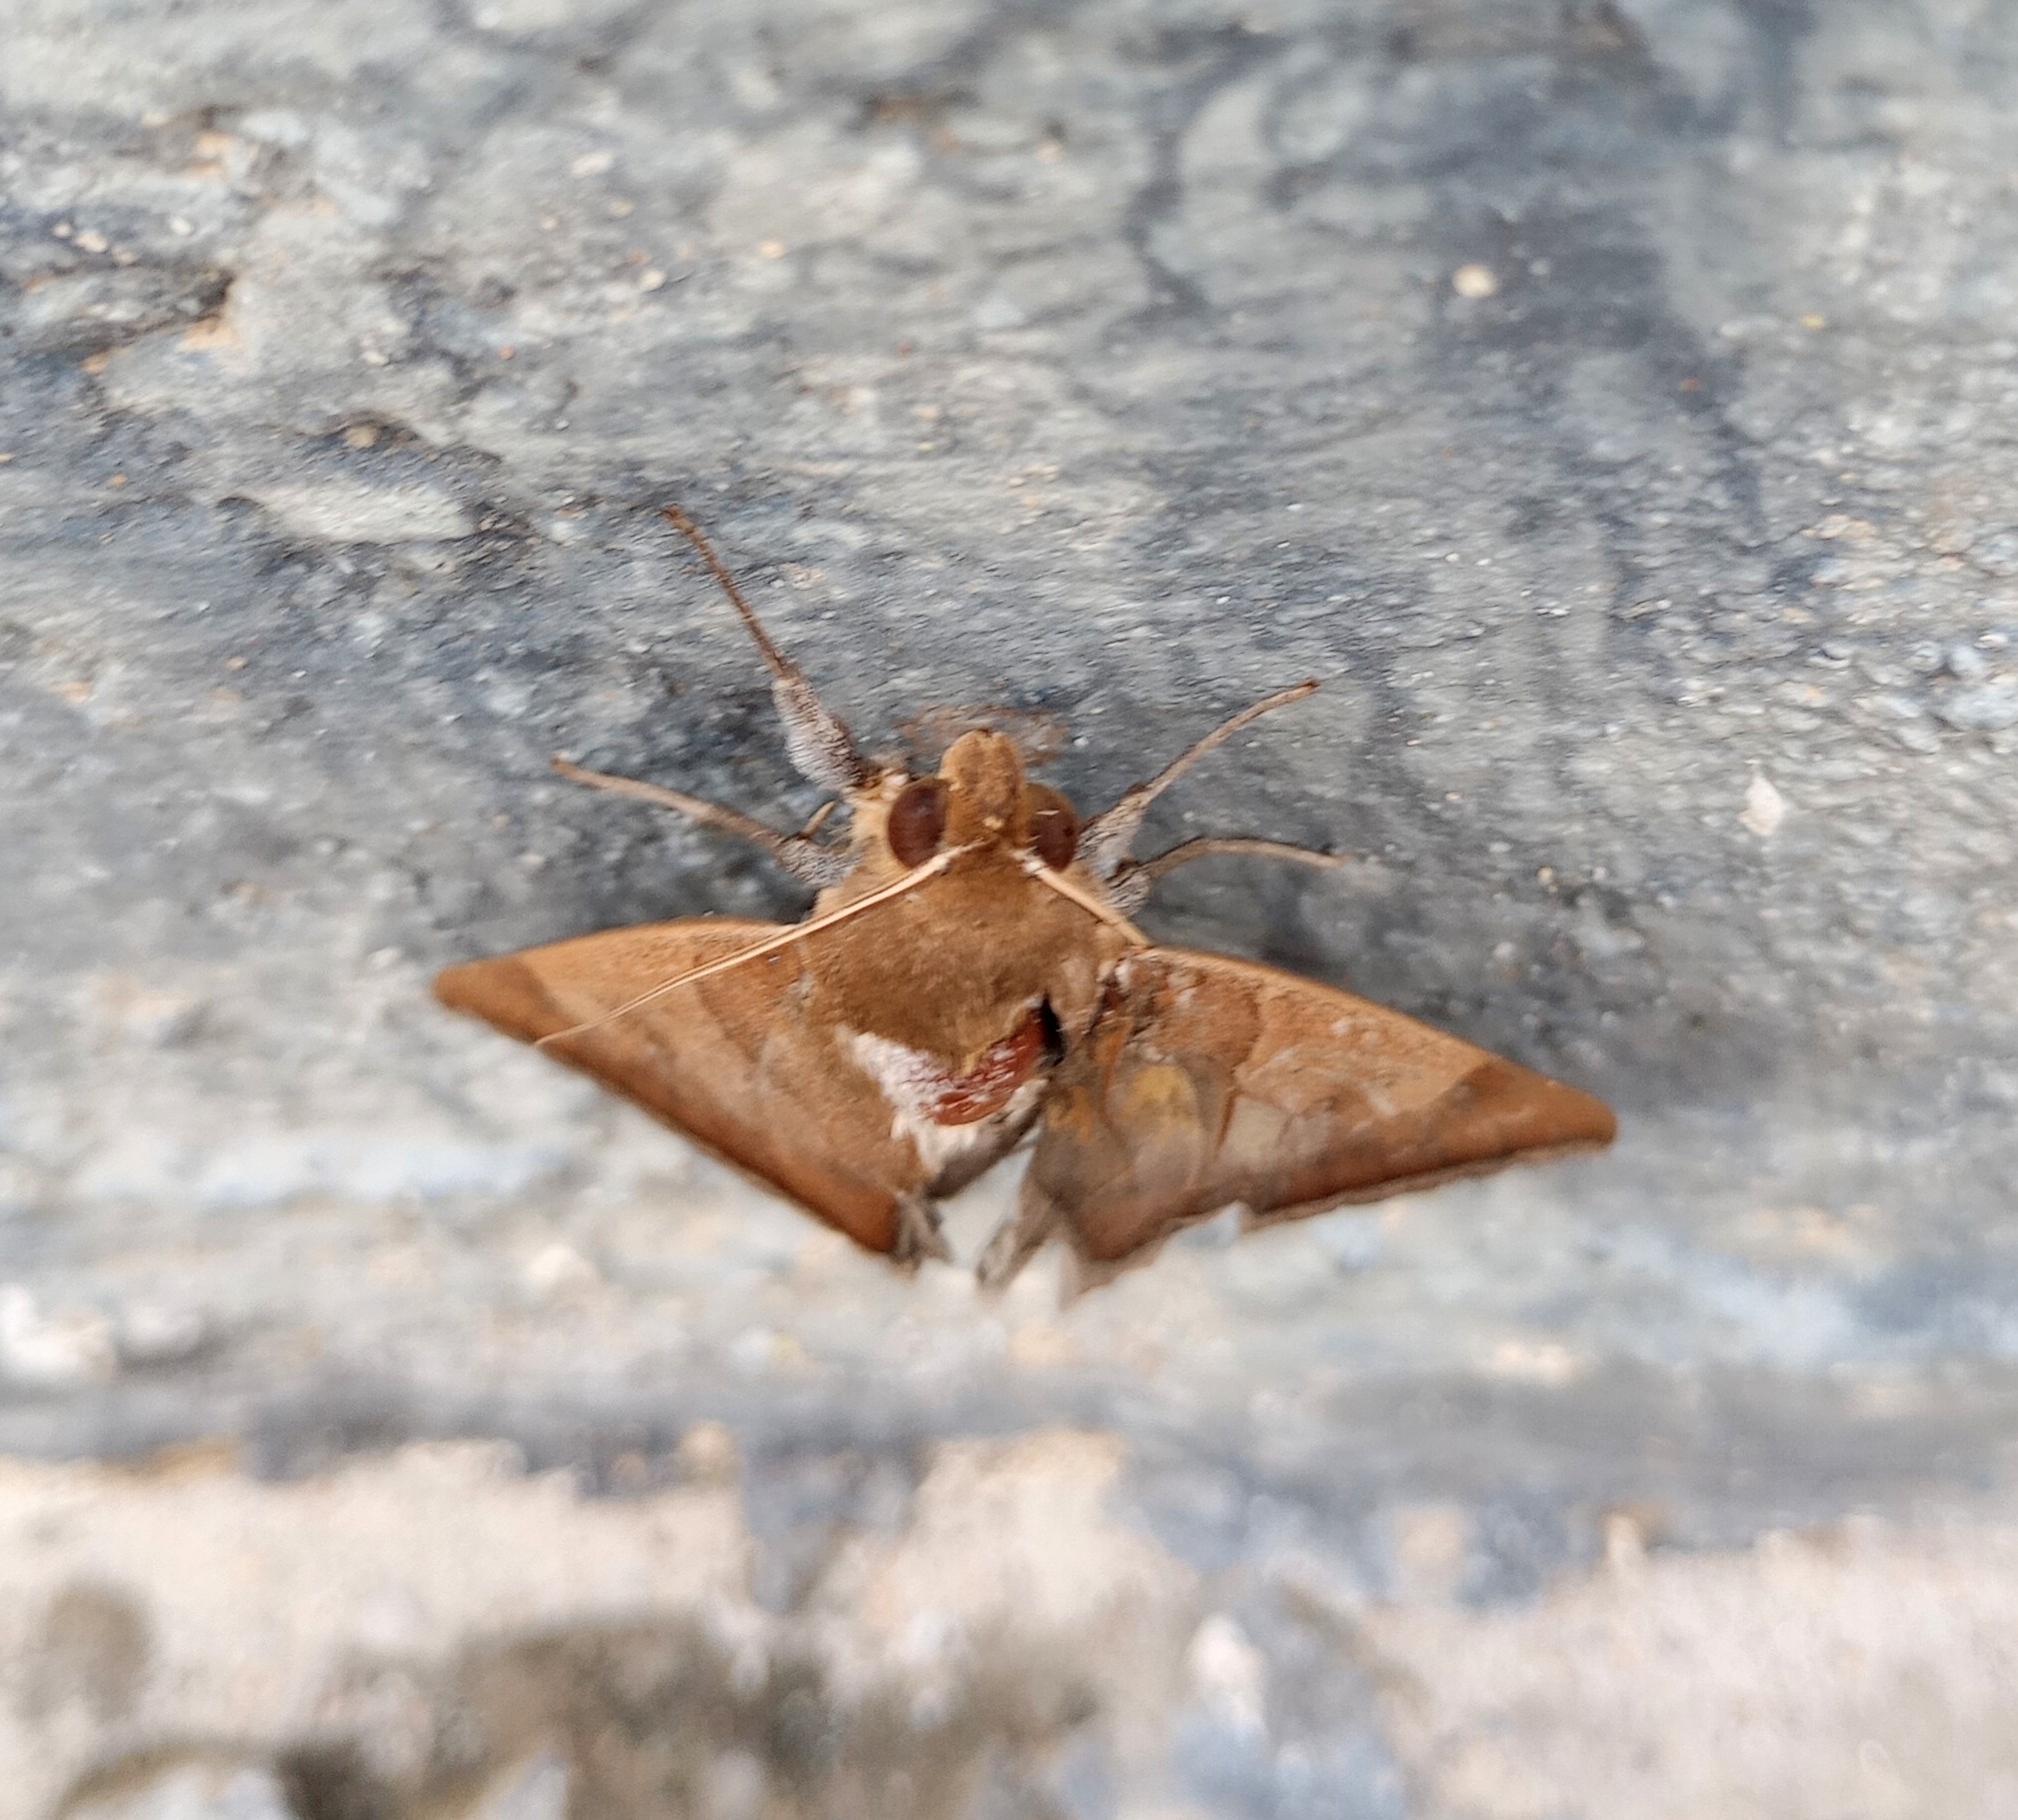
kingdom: Animalia
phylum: Arthropoda
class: Insecta
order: Lepidoptera
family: Erebidae
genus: Artena
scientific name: Artena dotata
